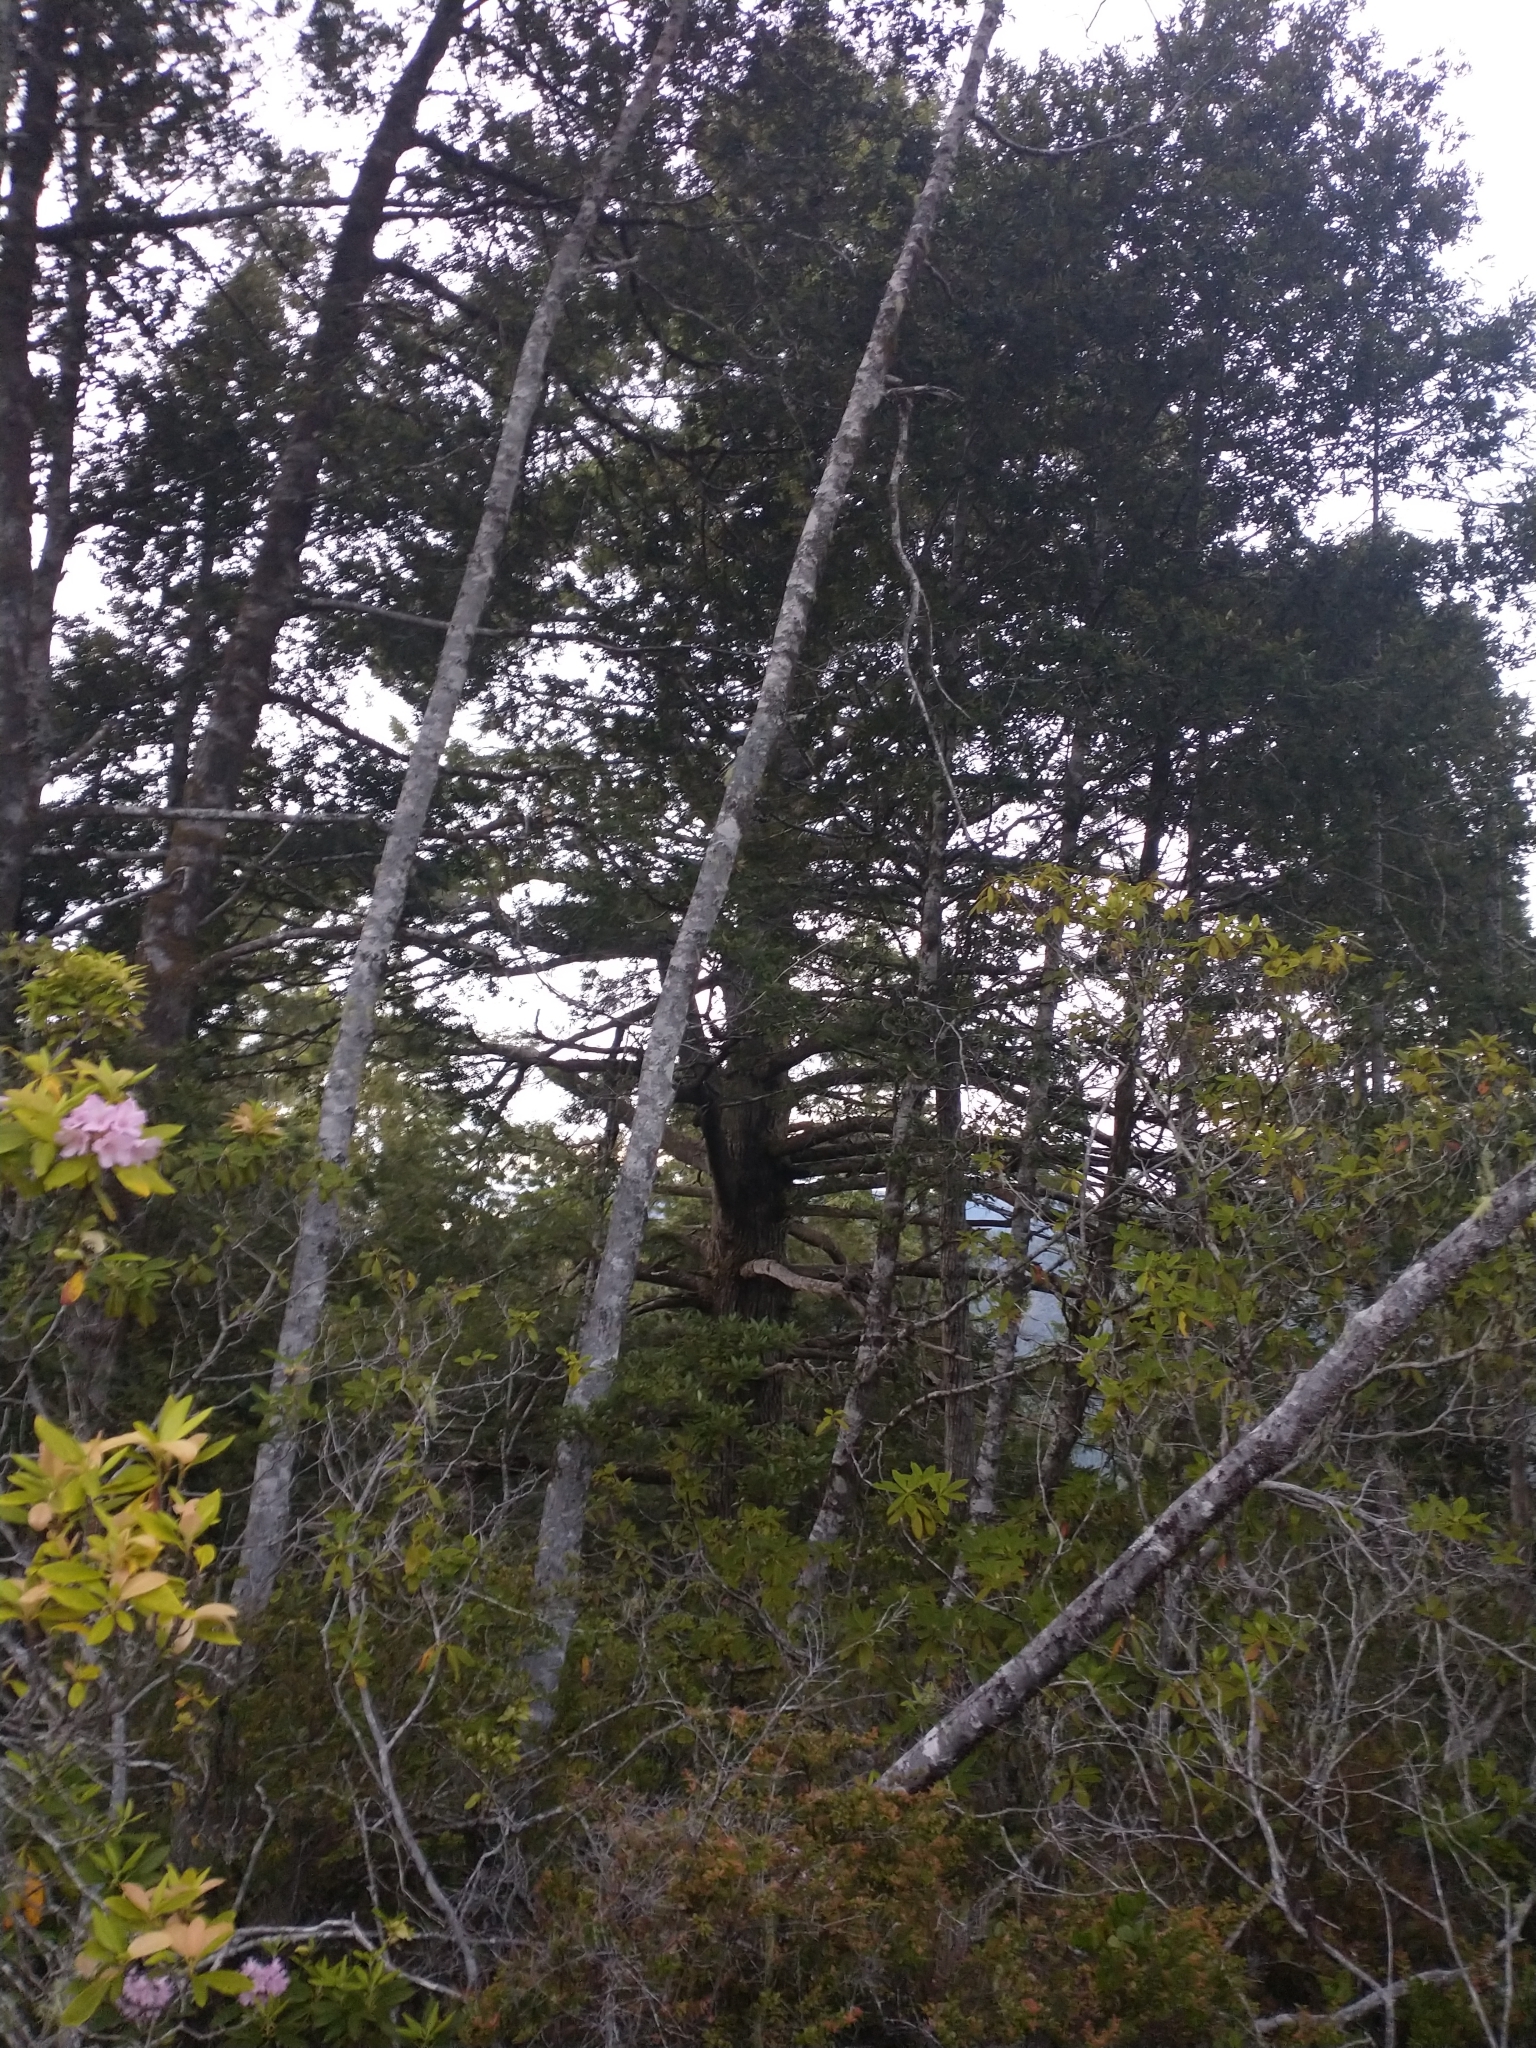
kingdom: Plantae
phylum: Tracheophyta
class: Magnoliopsida
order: Fagales
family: Fagaceae
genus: Chrysolepis
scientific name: Chrysolepis chrysophylla
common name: Giant chinquapin
